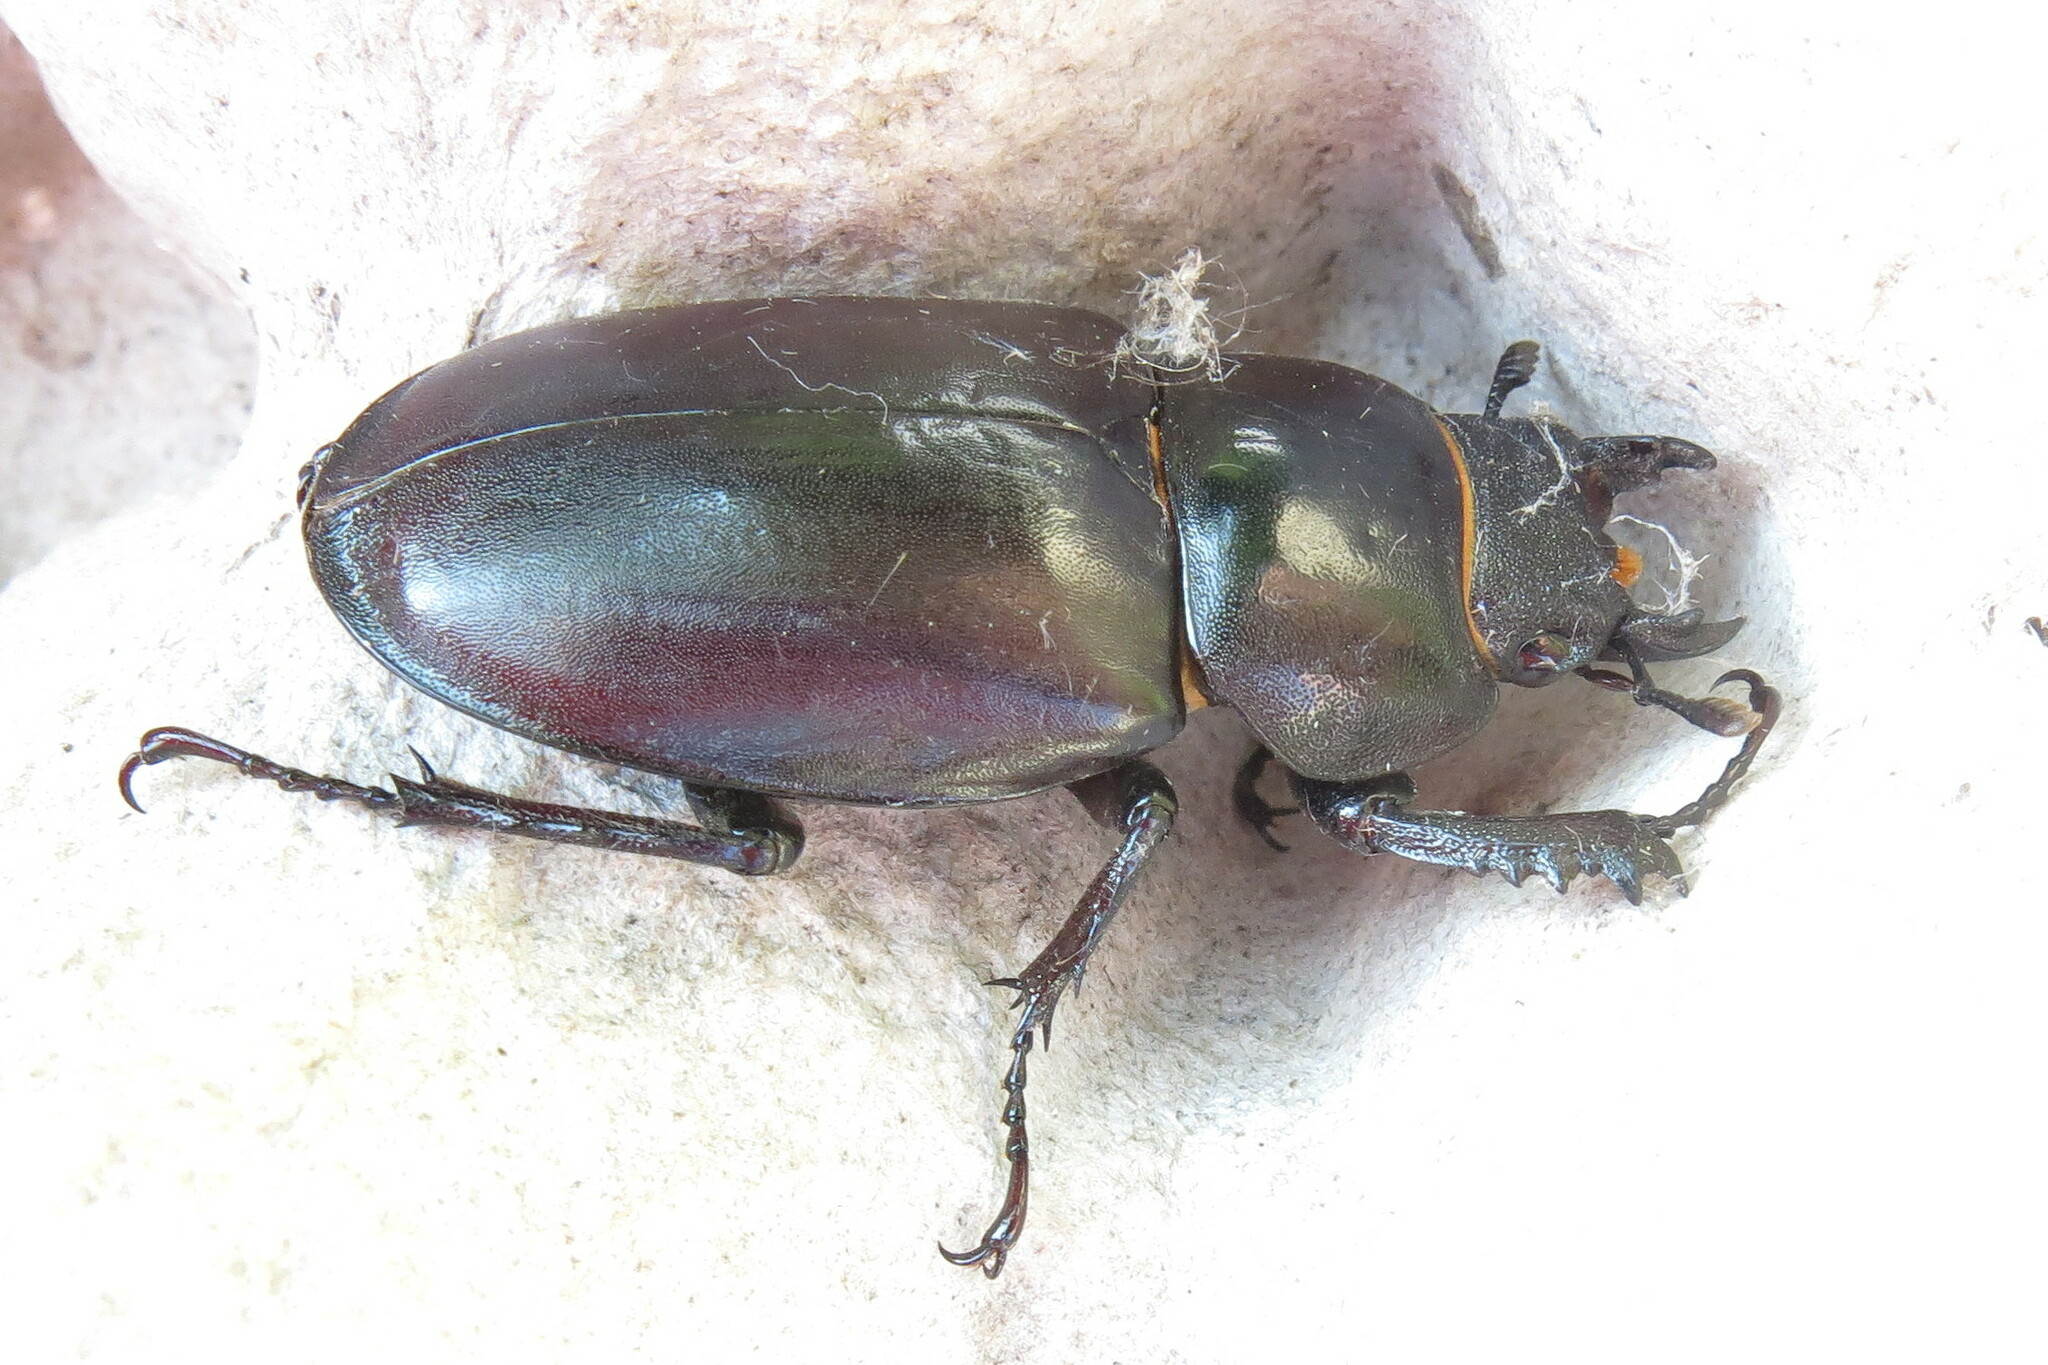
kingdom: Animalia
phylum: Arthropoda
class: Insecta
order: Coleoptera
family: Lucanidae
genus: Lucanus
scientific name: Lucanus cervus
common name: Stag beetle
